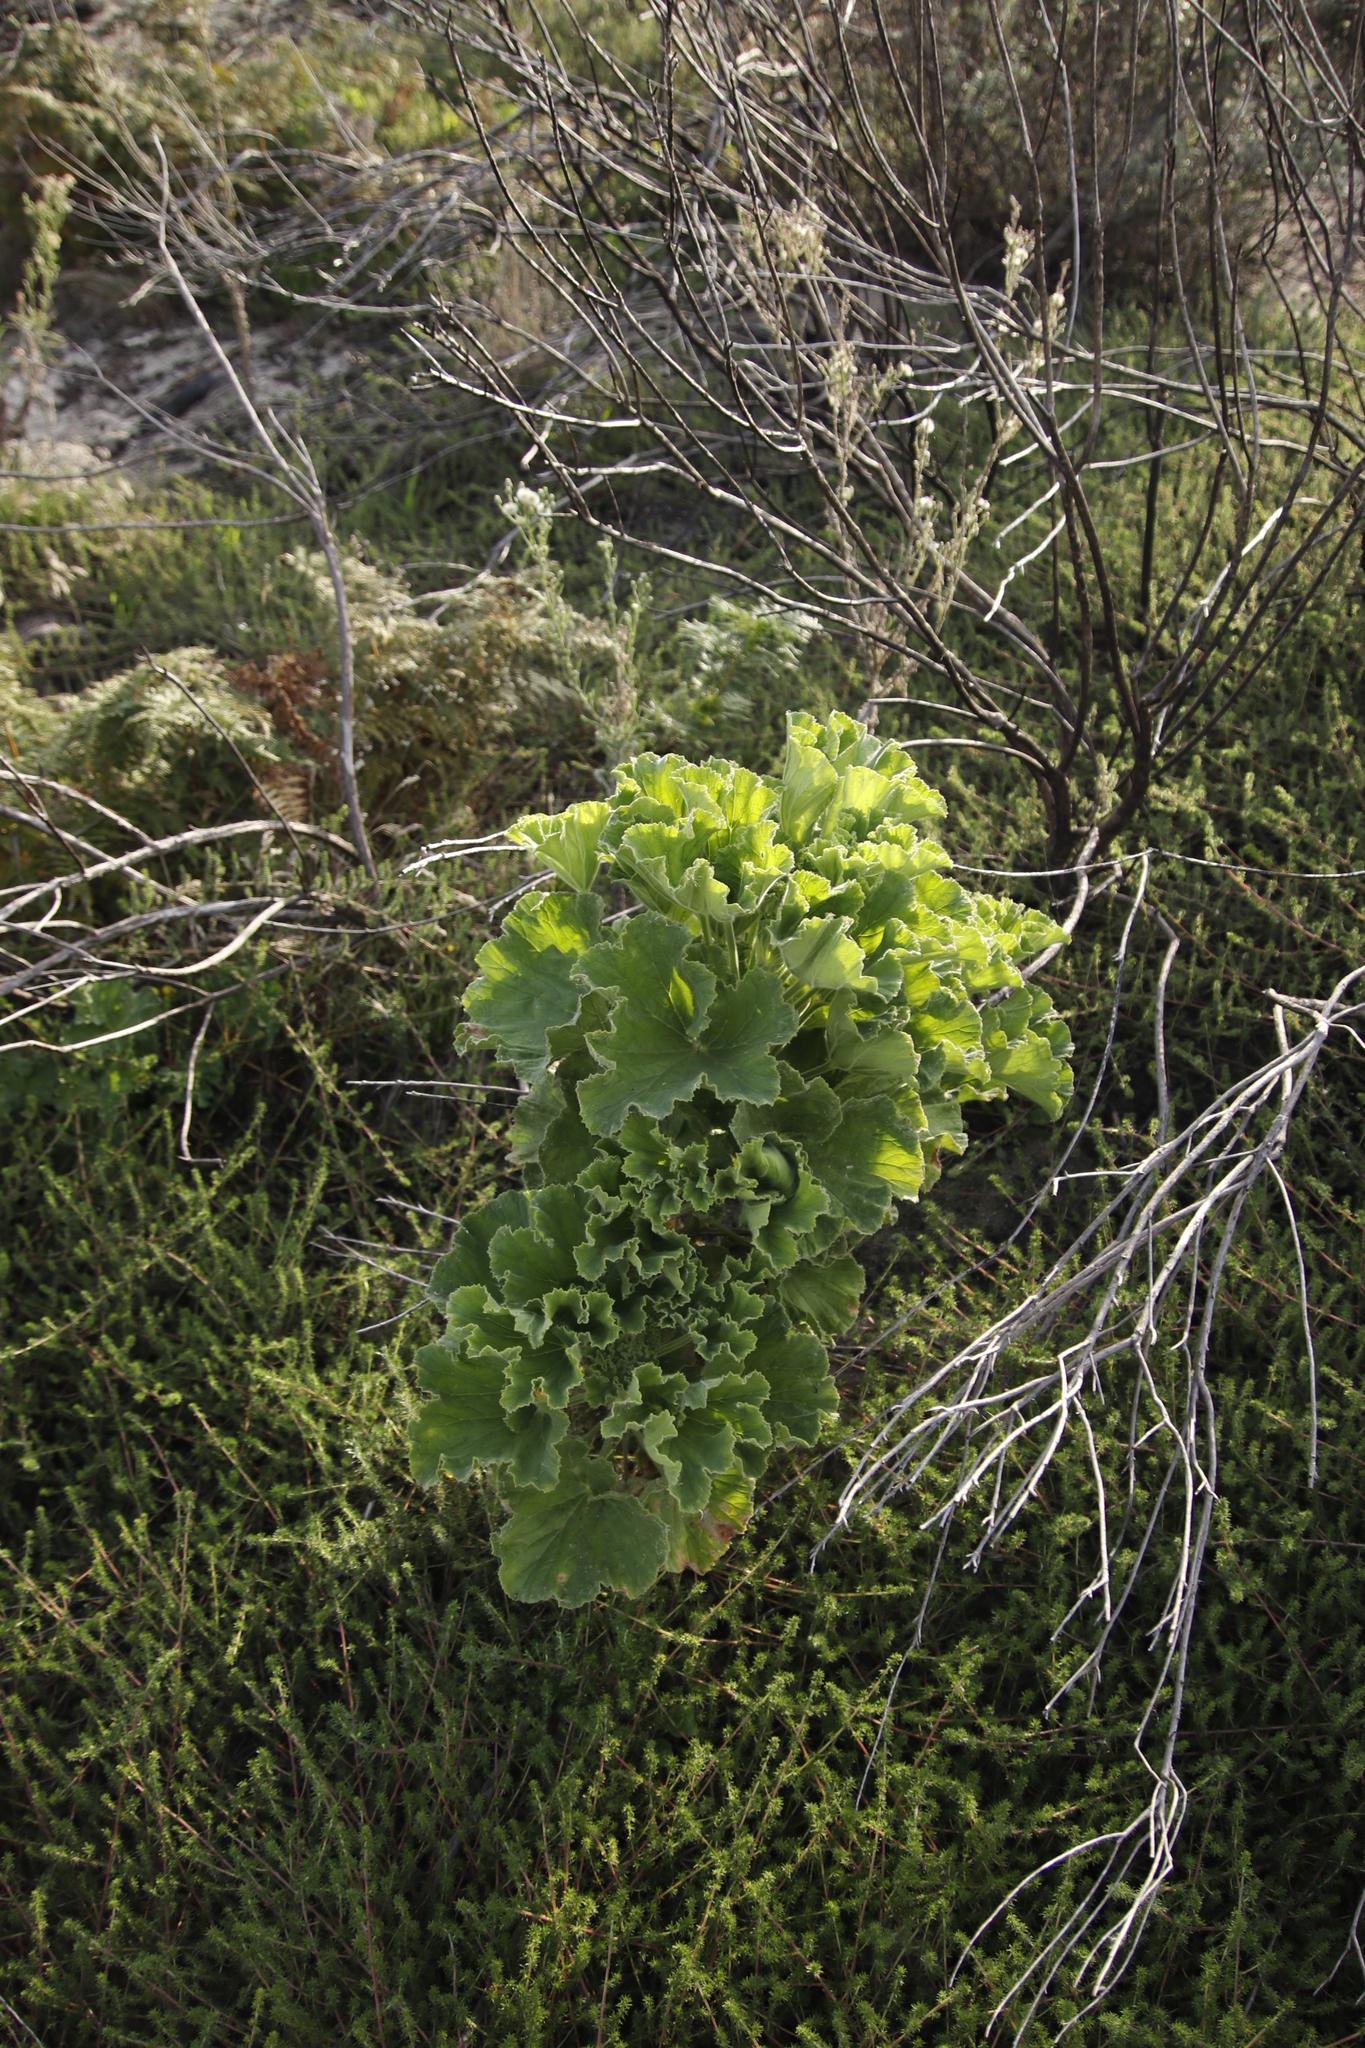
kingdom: Plantae
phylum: Tracheophyta
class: Magnoliopsida
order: Geraniales
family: Geraniaceae
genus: Pelargonium
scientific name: Pelargonium cucullatum
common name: Tree pelargonium
